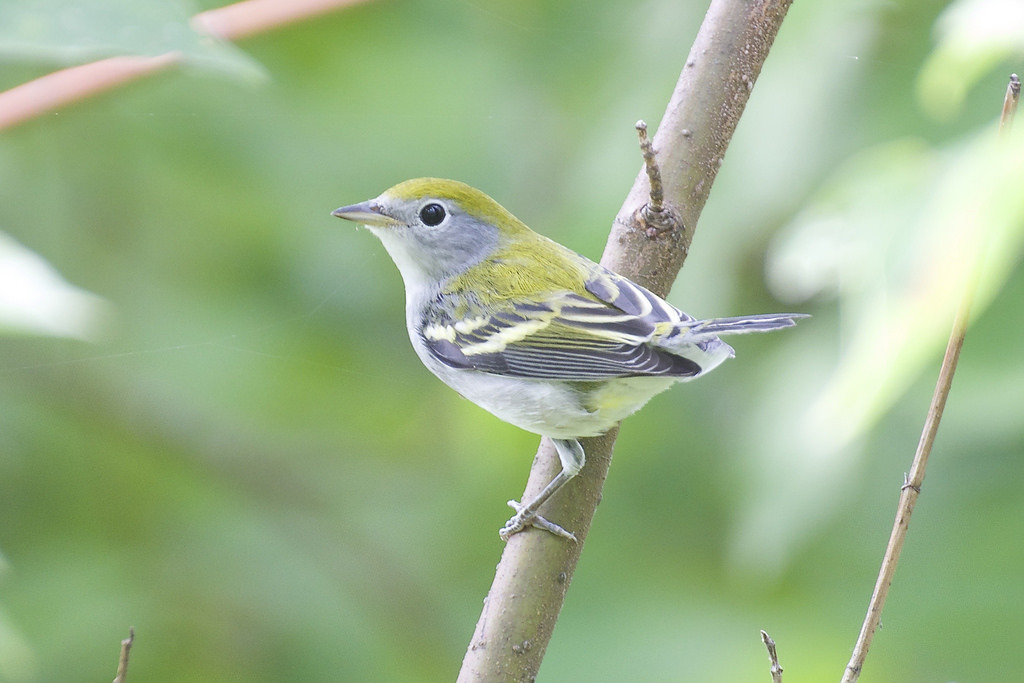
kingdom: Animalia
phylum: Chordata
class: Aves
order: Passeriformes
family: Parulidae
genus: Setophaga
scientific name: Setophaga pensylvanica
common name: Chestnut-sided warbler
